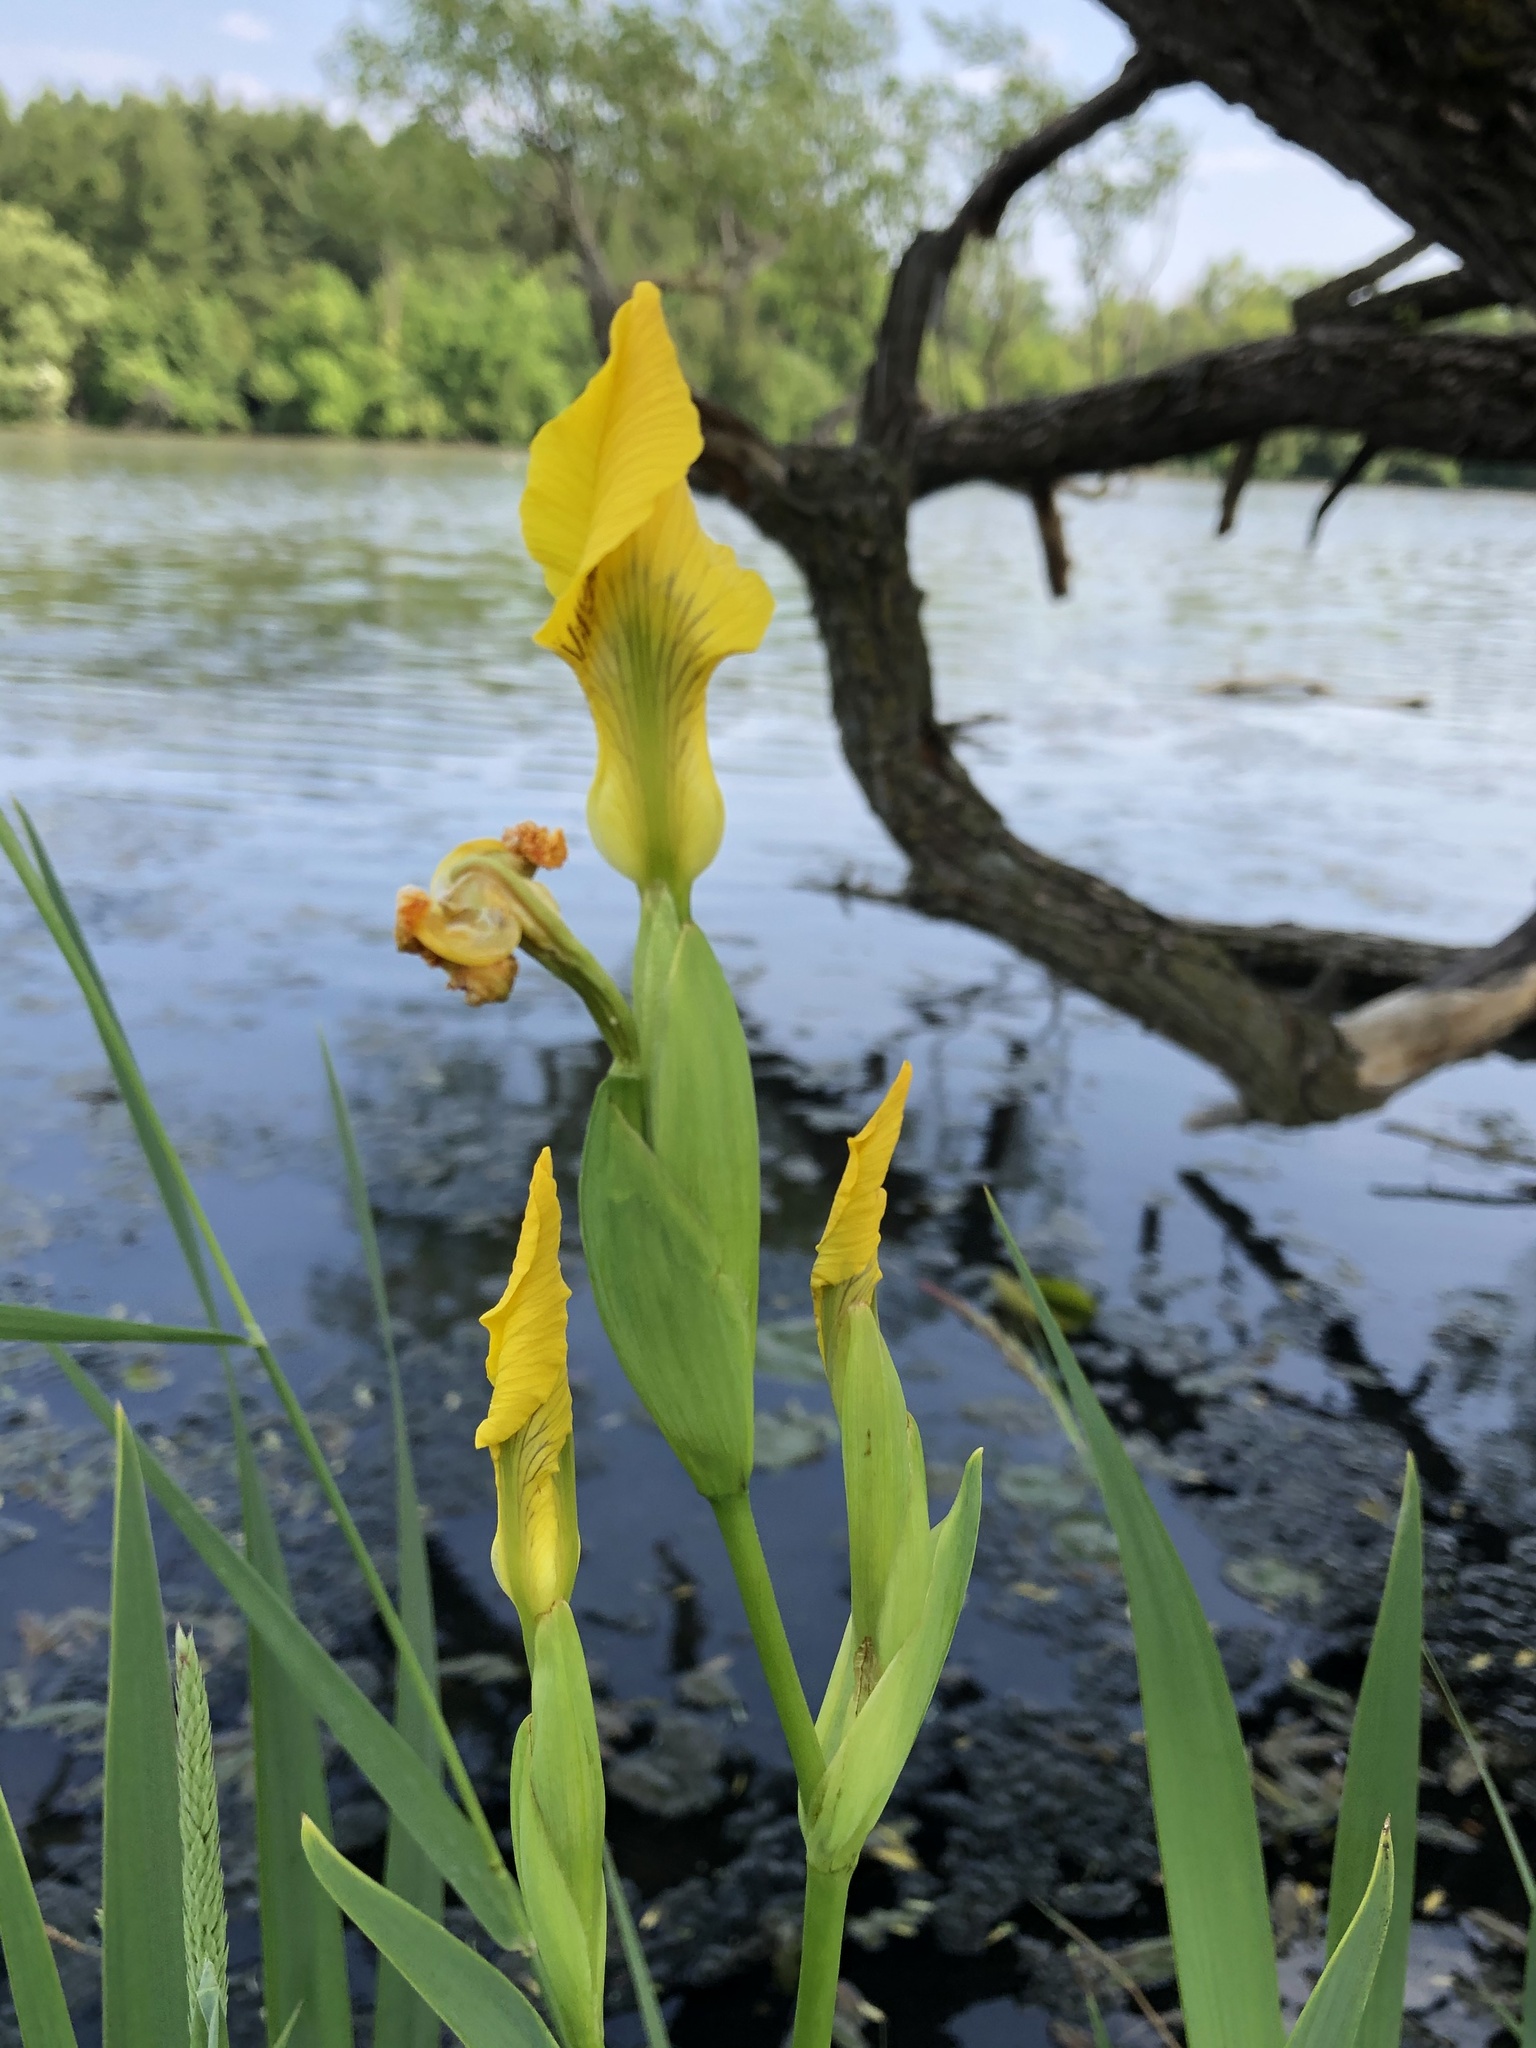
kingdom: Plantae
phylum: Tracheophyta
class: Liliopsida
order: Asparagales
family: Iridaceae
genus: Iris
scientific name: Iris pseudacorus
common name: Yellow flag
